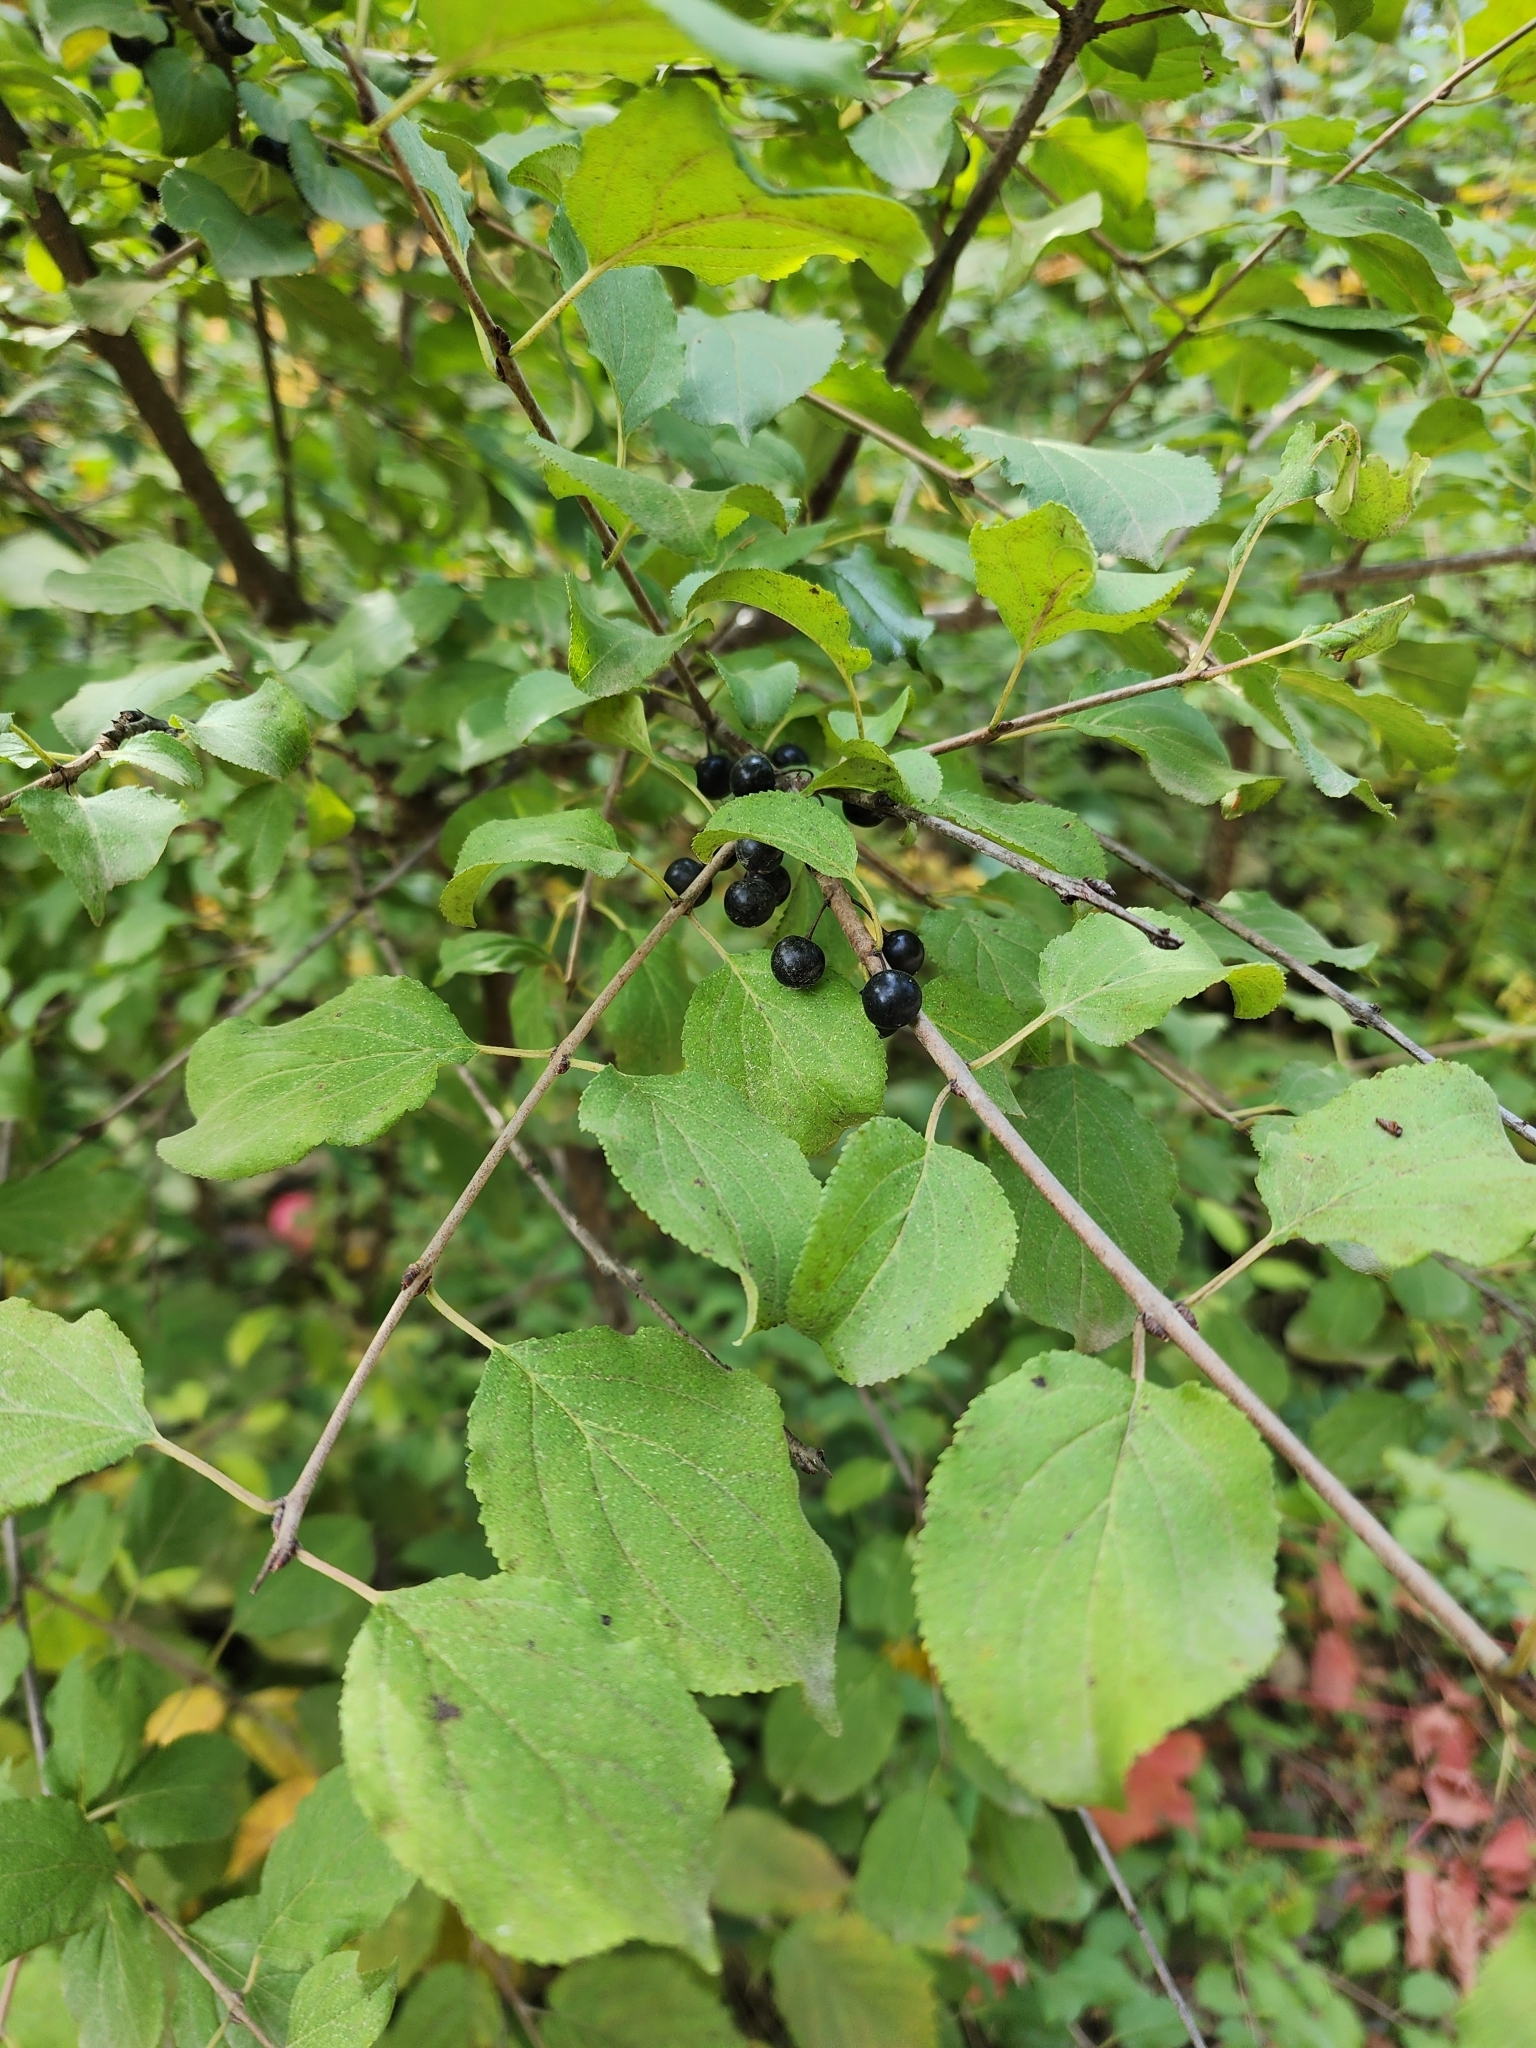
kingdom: Plantae
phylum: Tracheophyta
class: Magnoliopsida
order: Rosales
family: Rhamnaceae
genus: Rhamnus
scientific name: Rhamnus cathartica
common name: Common buckthorn
